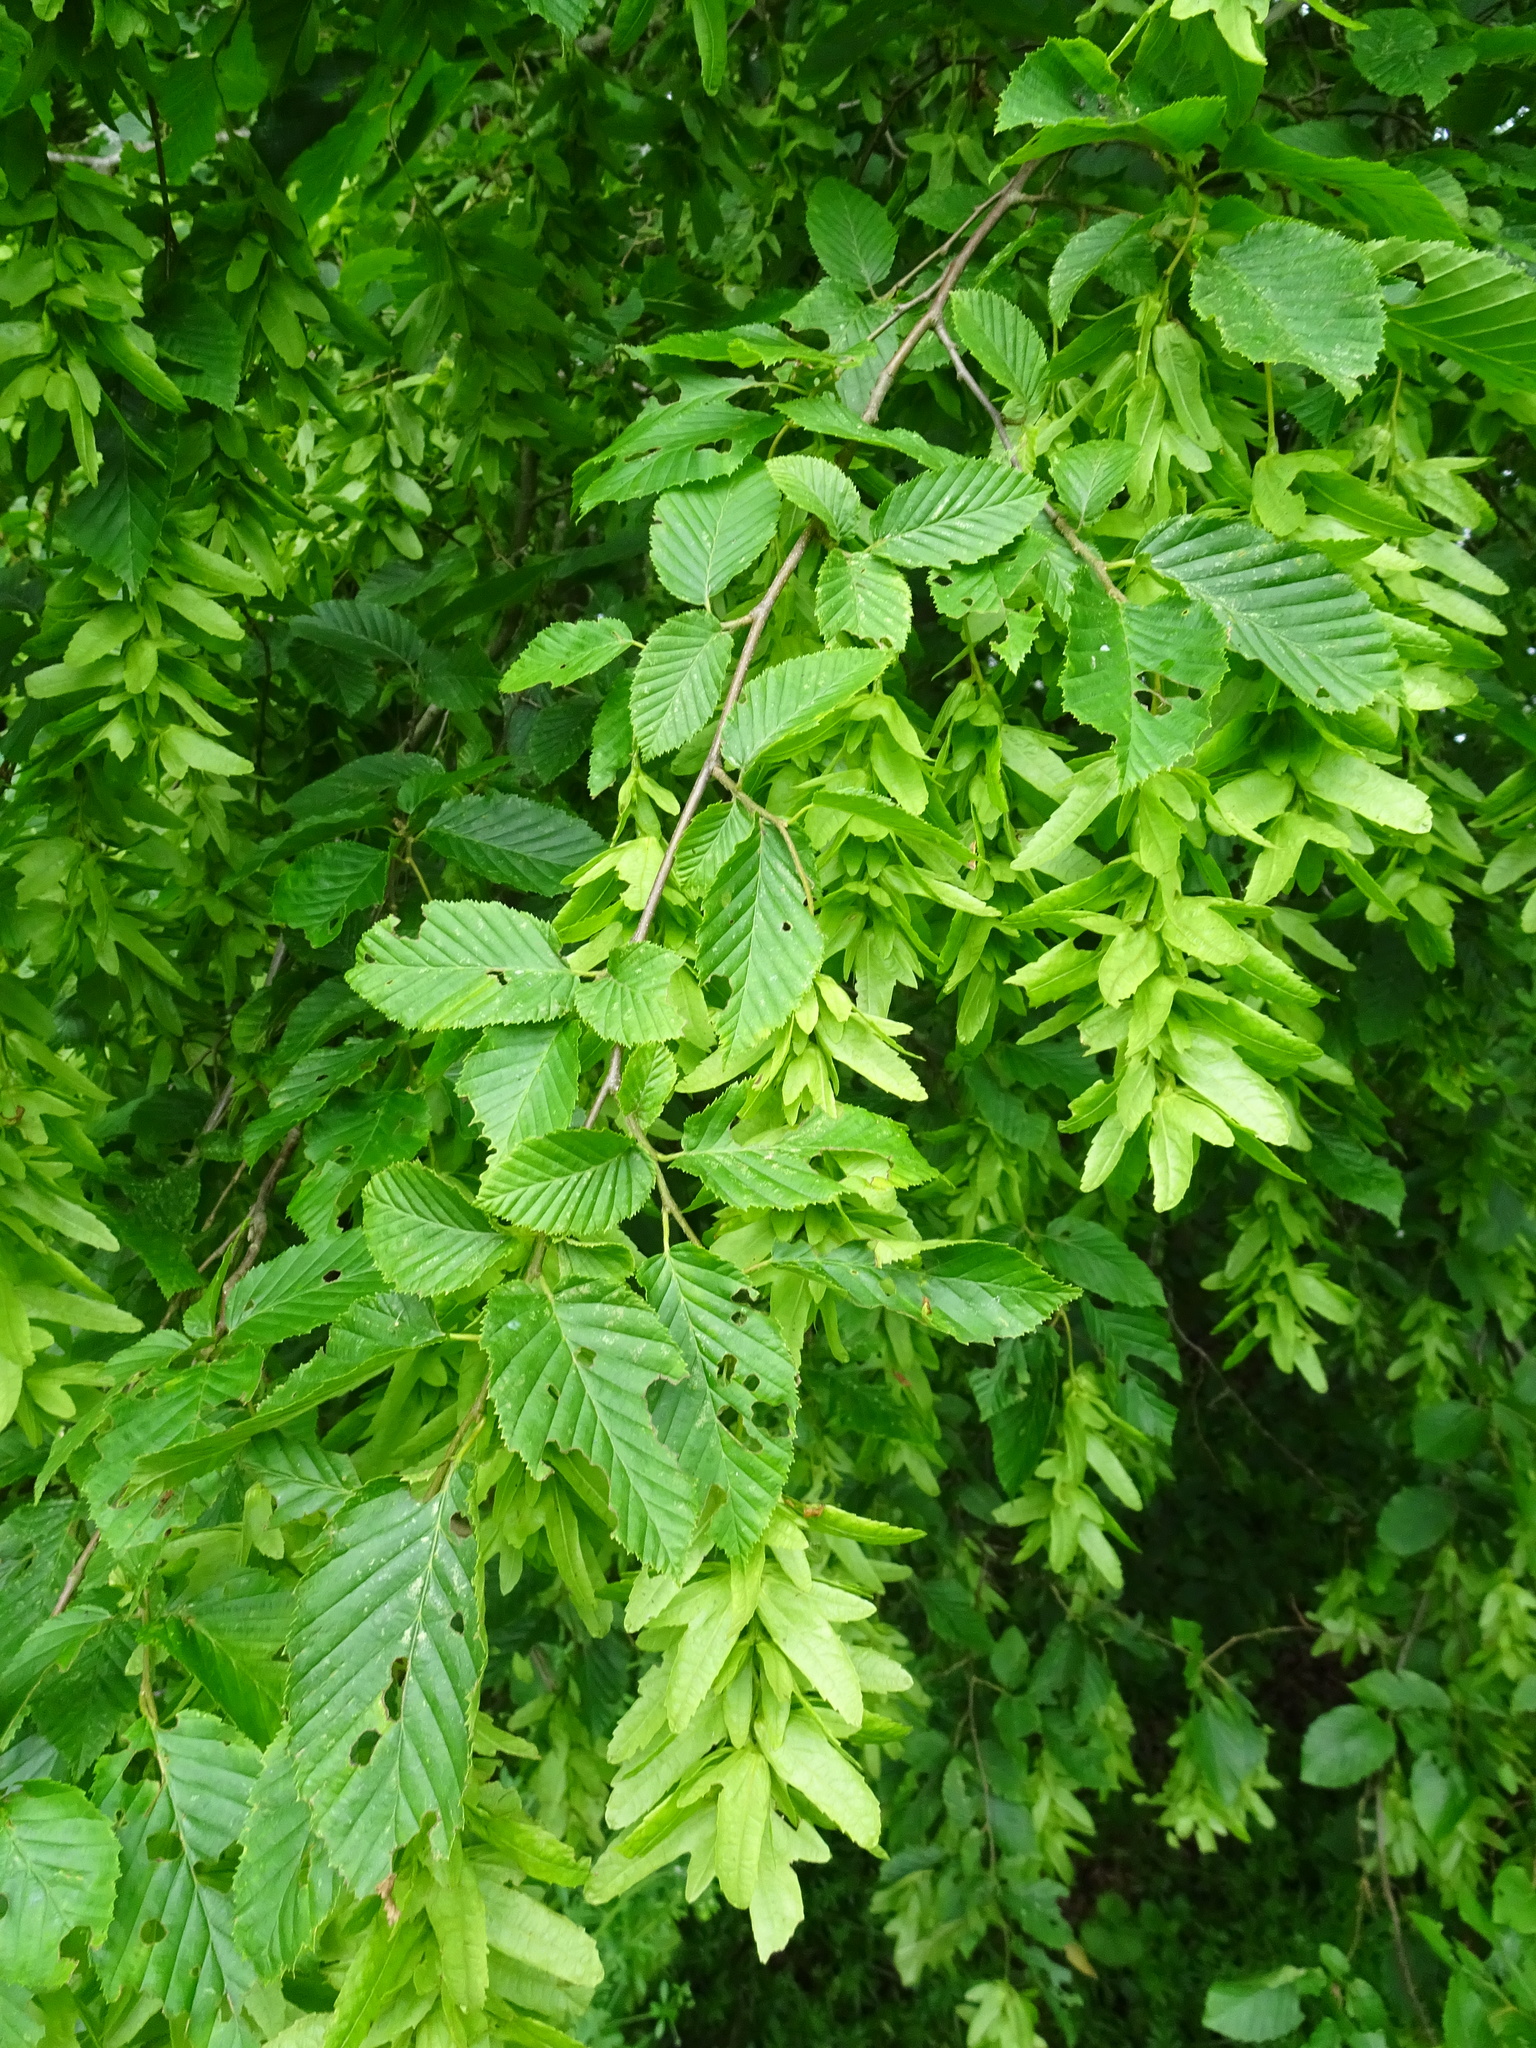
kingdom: Plantae
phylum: Tracheophyta
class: Magnoliopsida
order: Fagales
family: Betulaceae
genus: Carpinus
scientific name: Carpinus betulus
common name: Hornbeam
